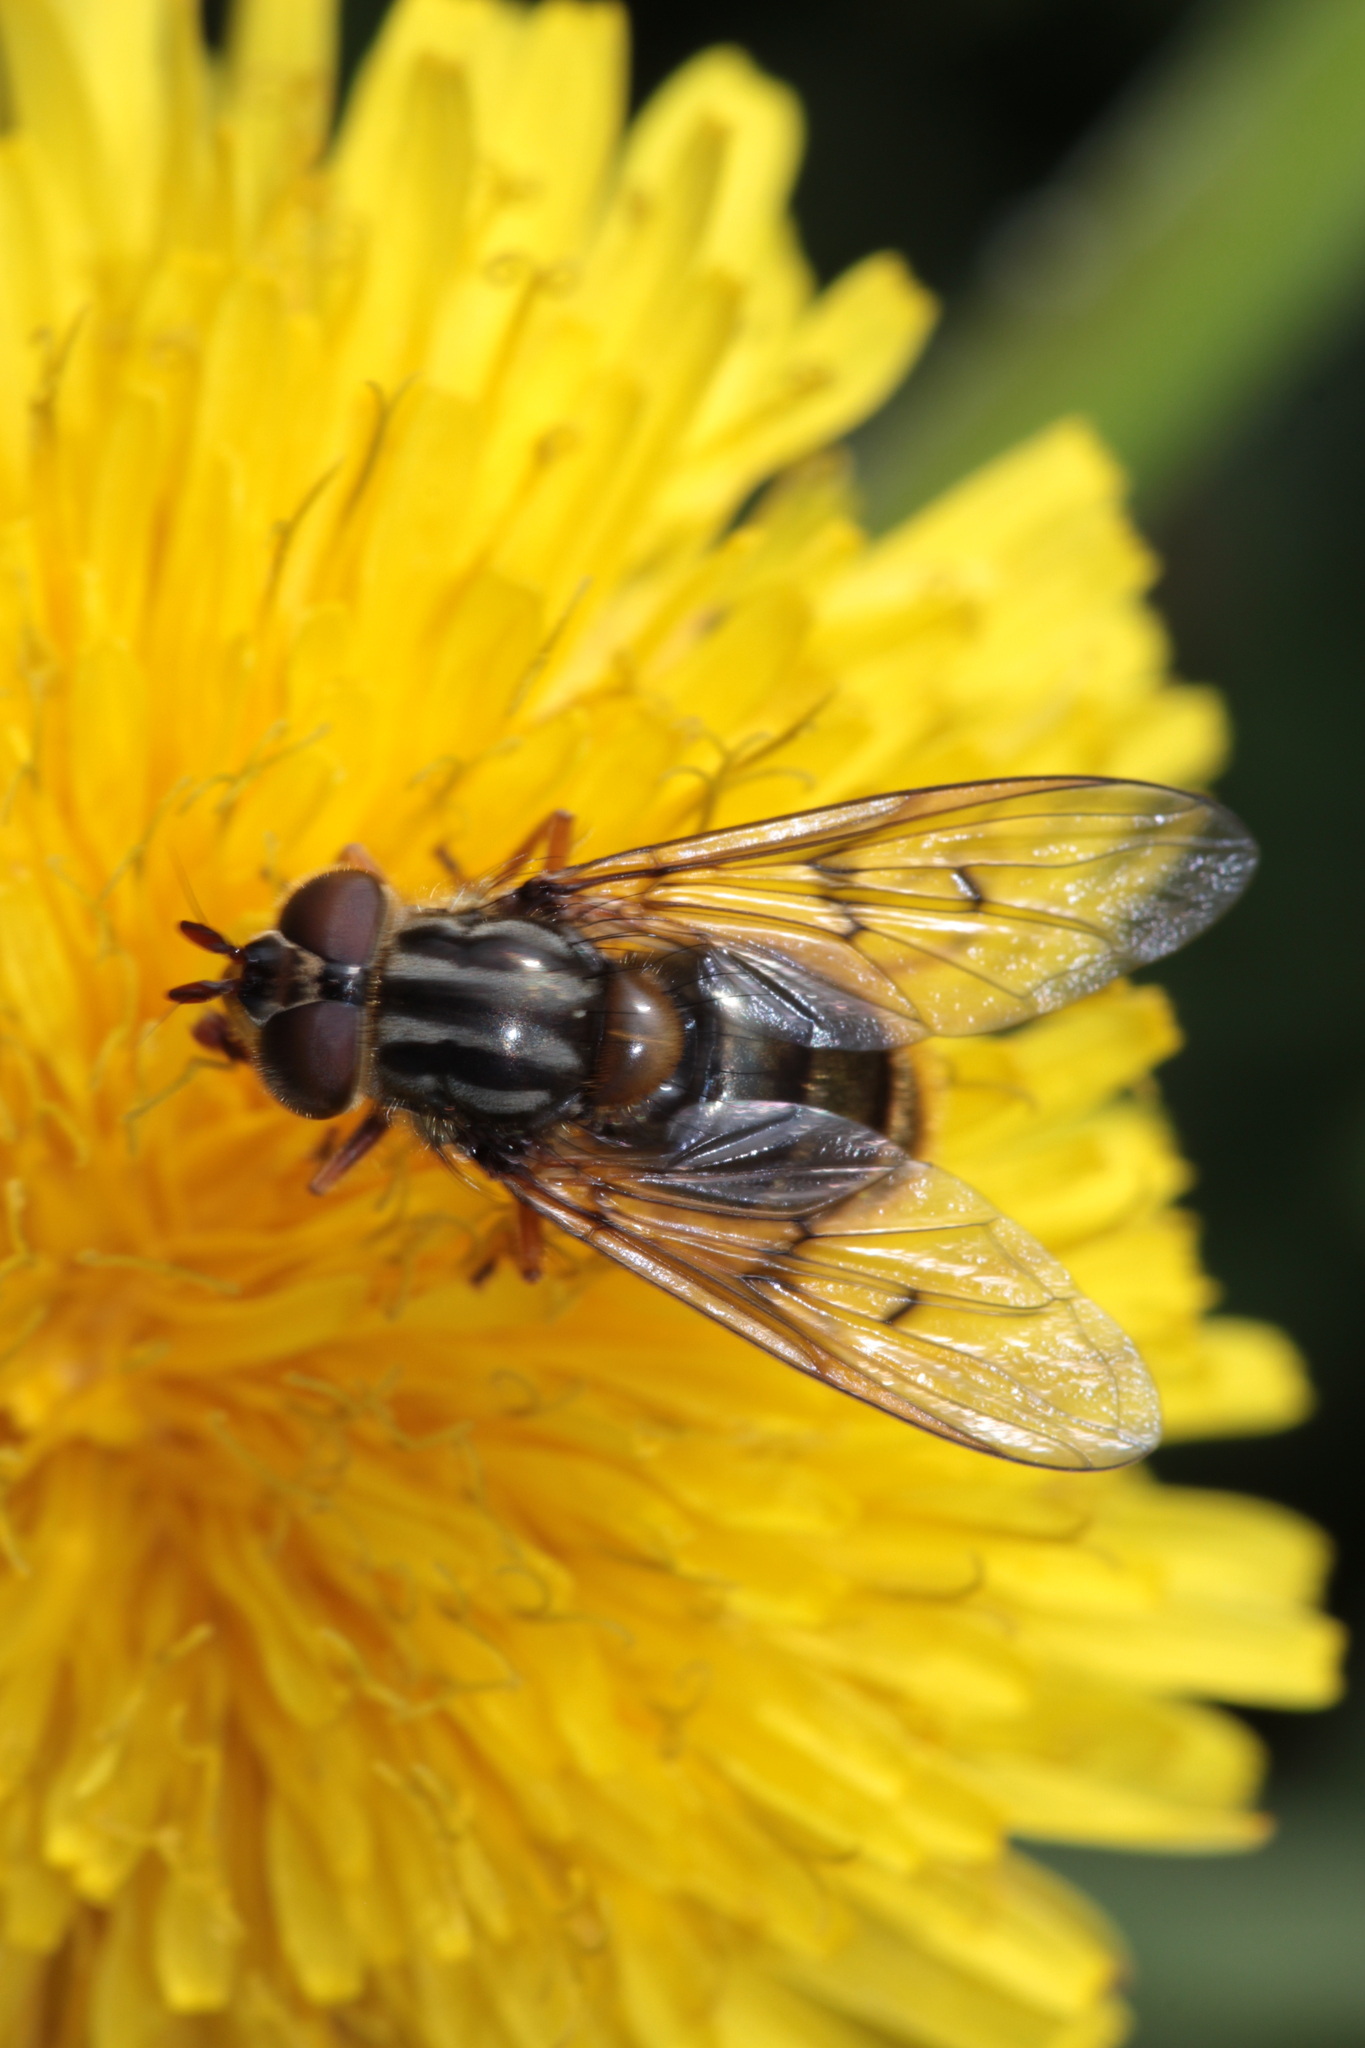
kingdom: Animalia
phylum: Arthropoda
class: Insecta
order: Diptera
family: Syrphidae
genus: Ferdinandea
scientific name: Ferdinandea cuprea
